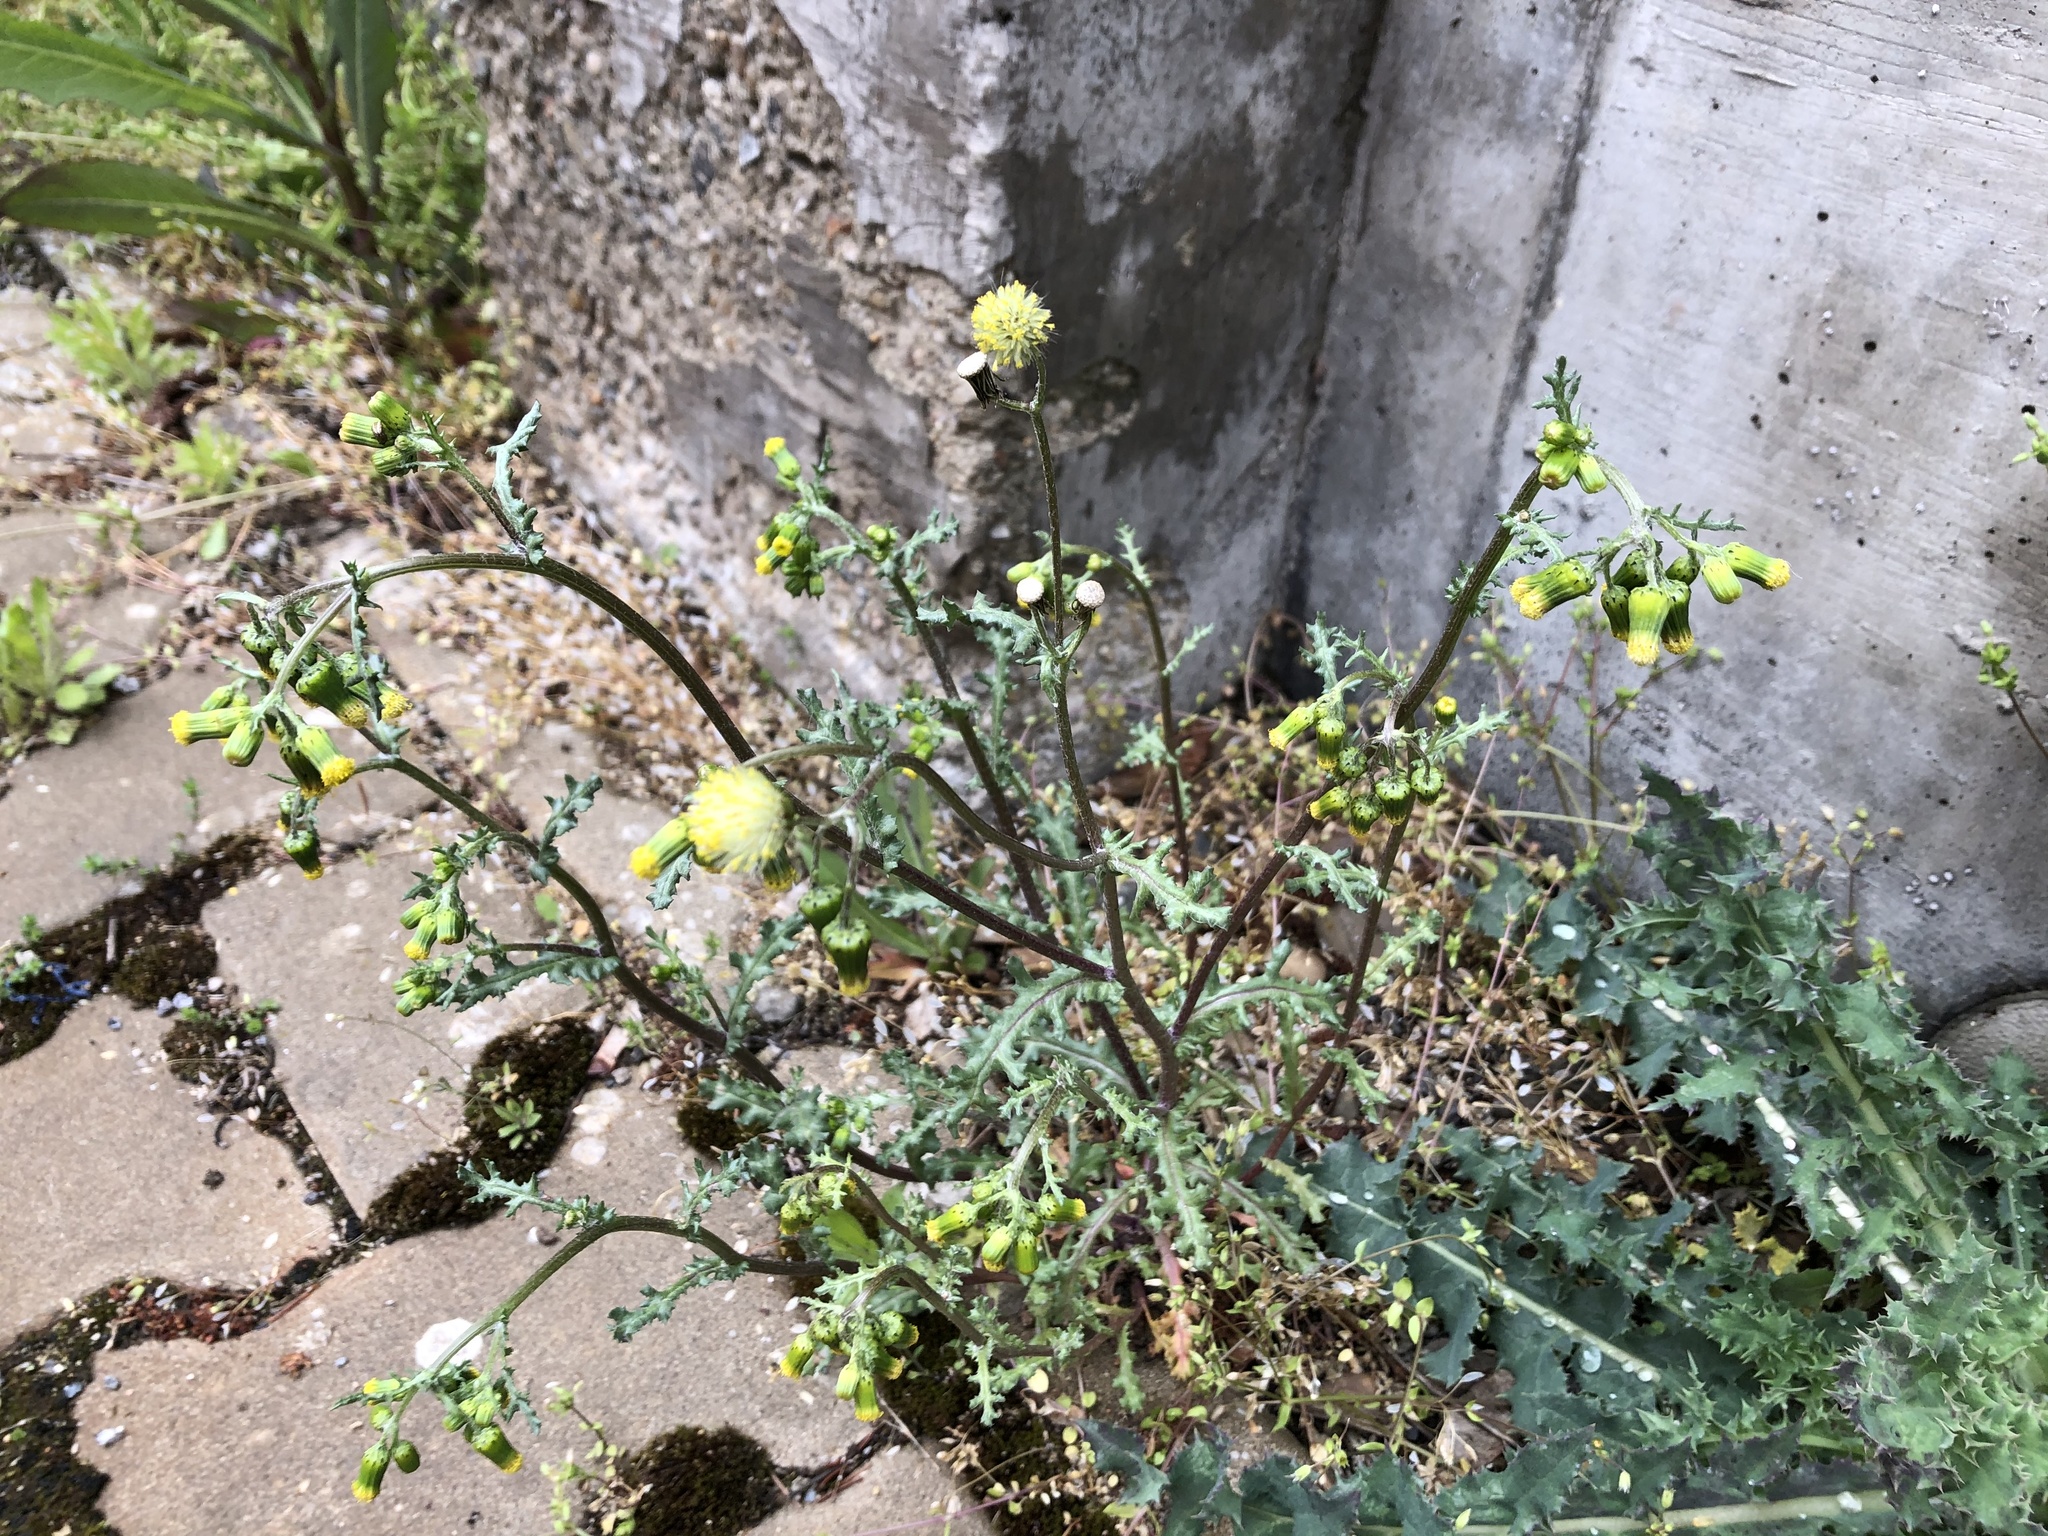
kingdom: Plantae
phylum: Tracheophyta
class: Magnoliopsida
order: Asterales
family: Asteraceae
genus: Senecio
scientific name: Senecio vulgaris
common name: Old-man-in-the-spring
